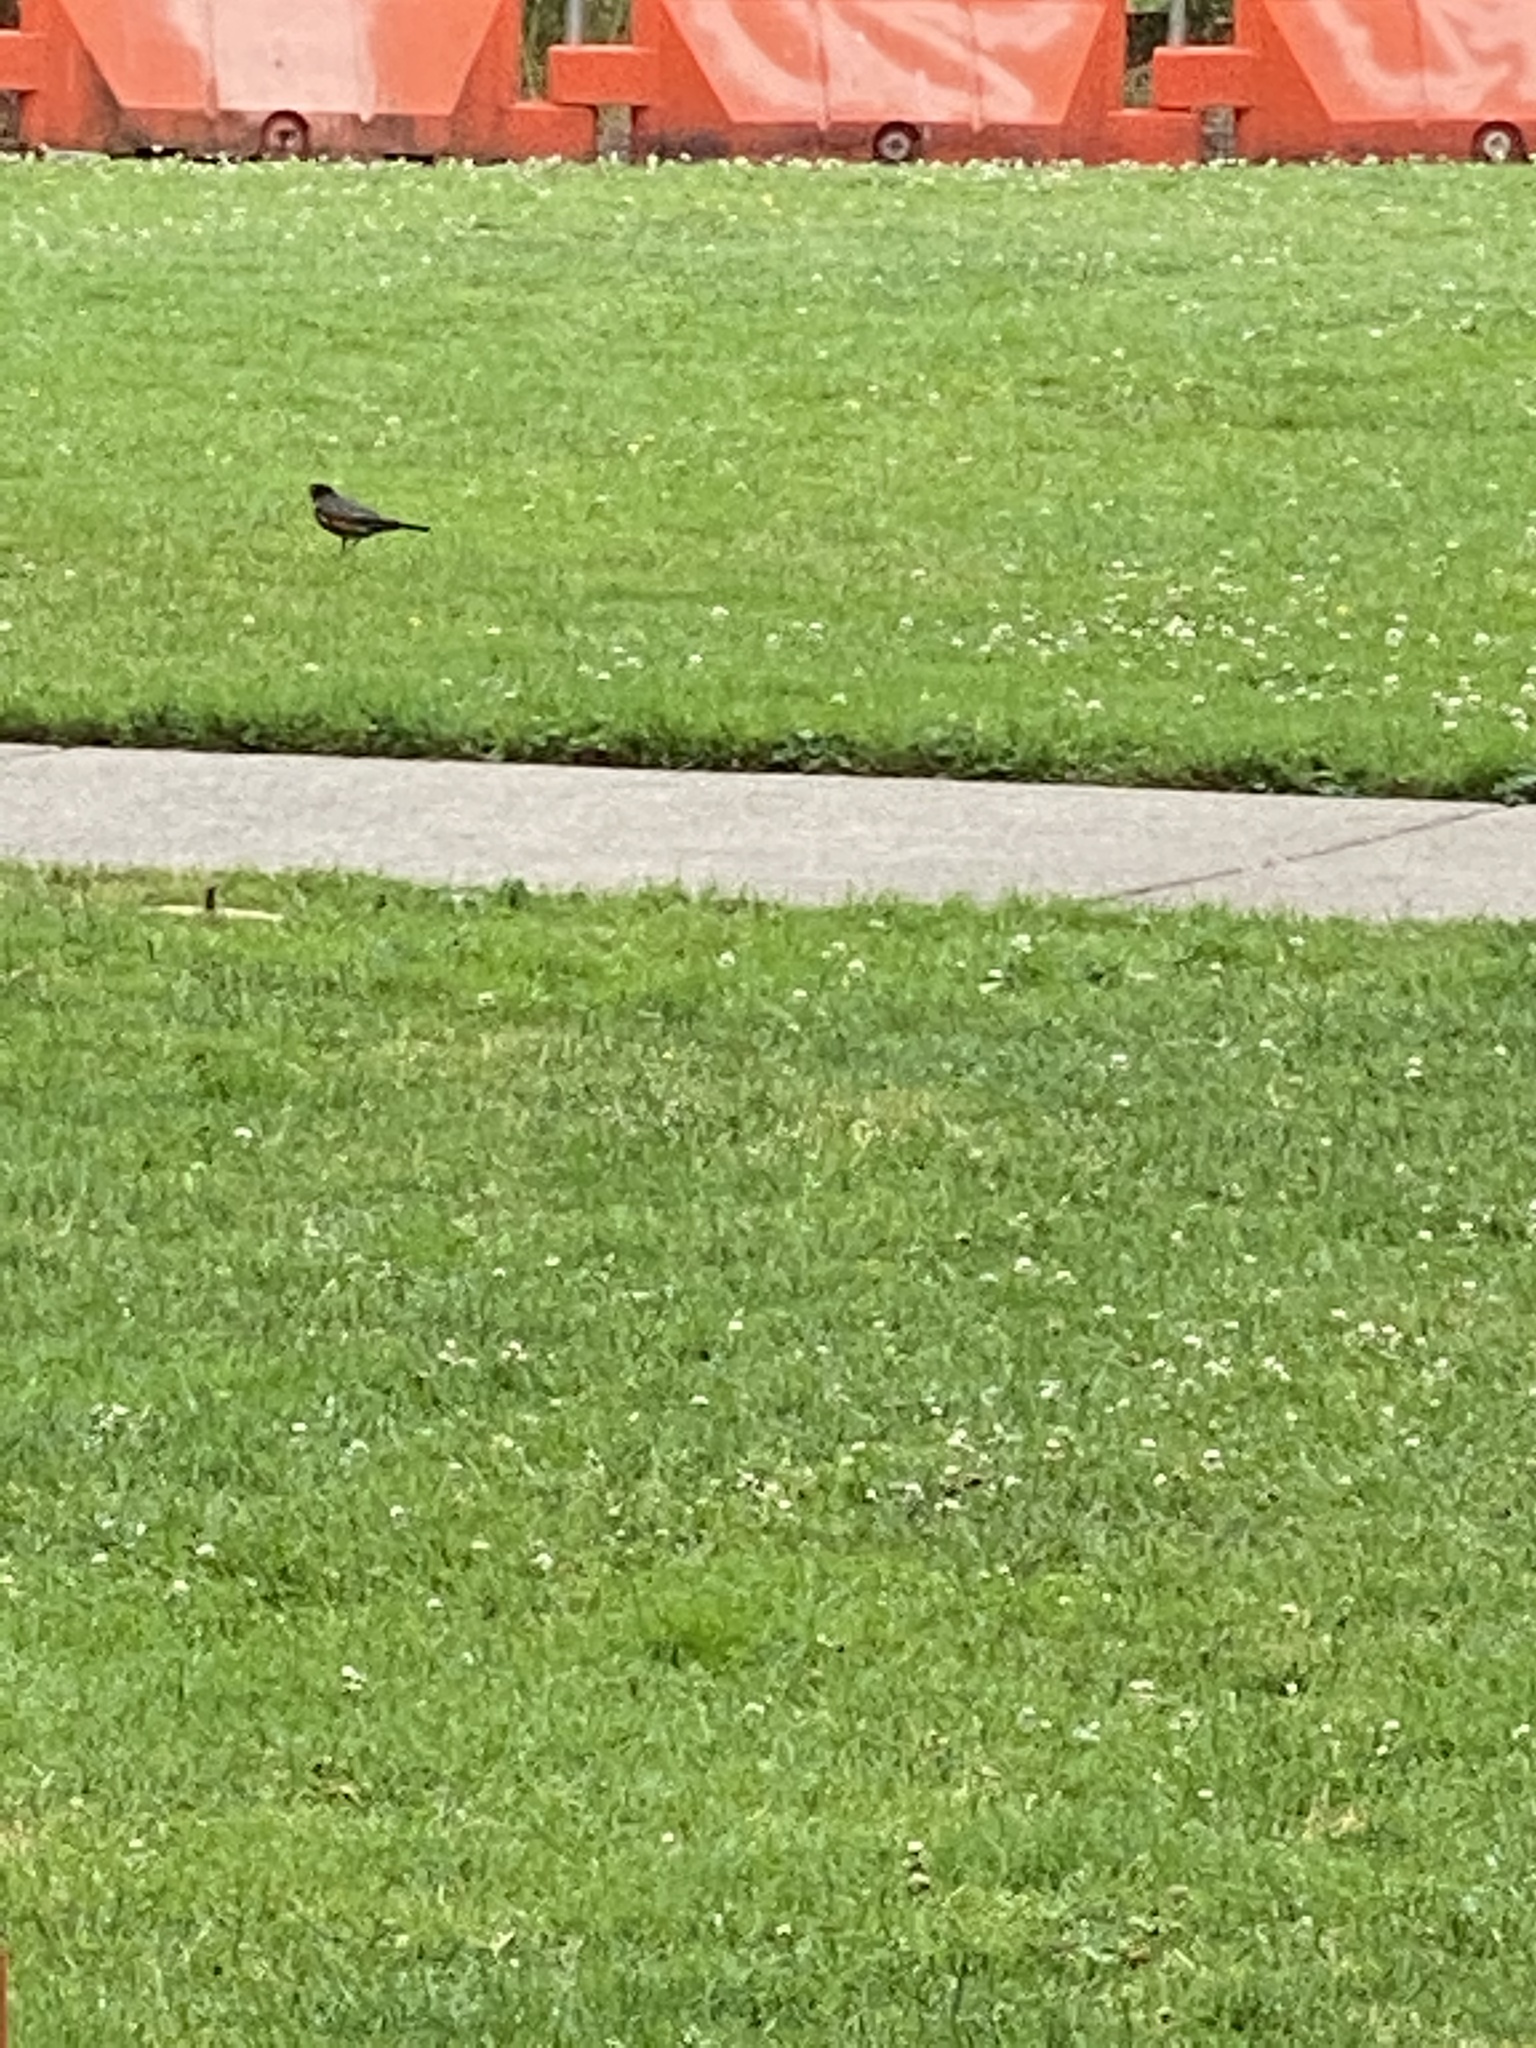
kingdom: Animalia
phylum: Chordata
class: Aves
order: Passeriformes
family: Turdidae
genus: Turdus
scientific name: Turdus migratorius
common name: American robin
